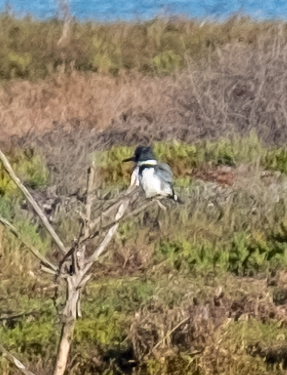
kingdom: Animalia
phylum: Chordata
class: Aves
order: Coraciiformes
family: Alcedinidae
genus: Megaceryle
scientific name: Megaceryle alcyon
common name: Belted kingfisher
